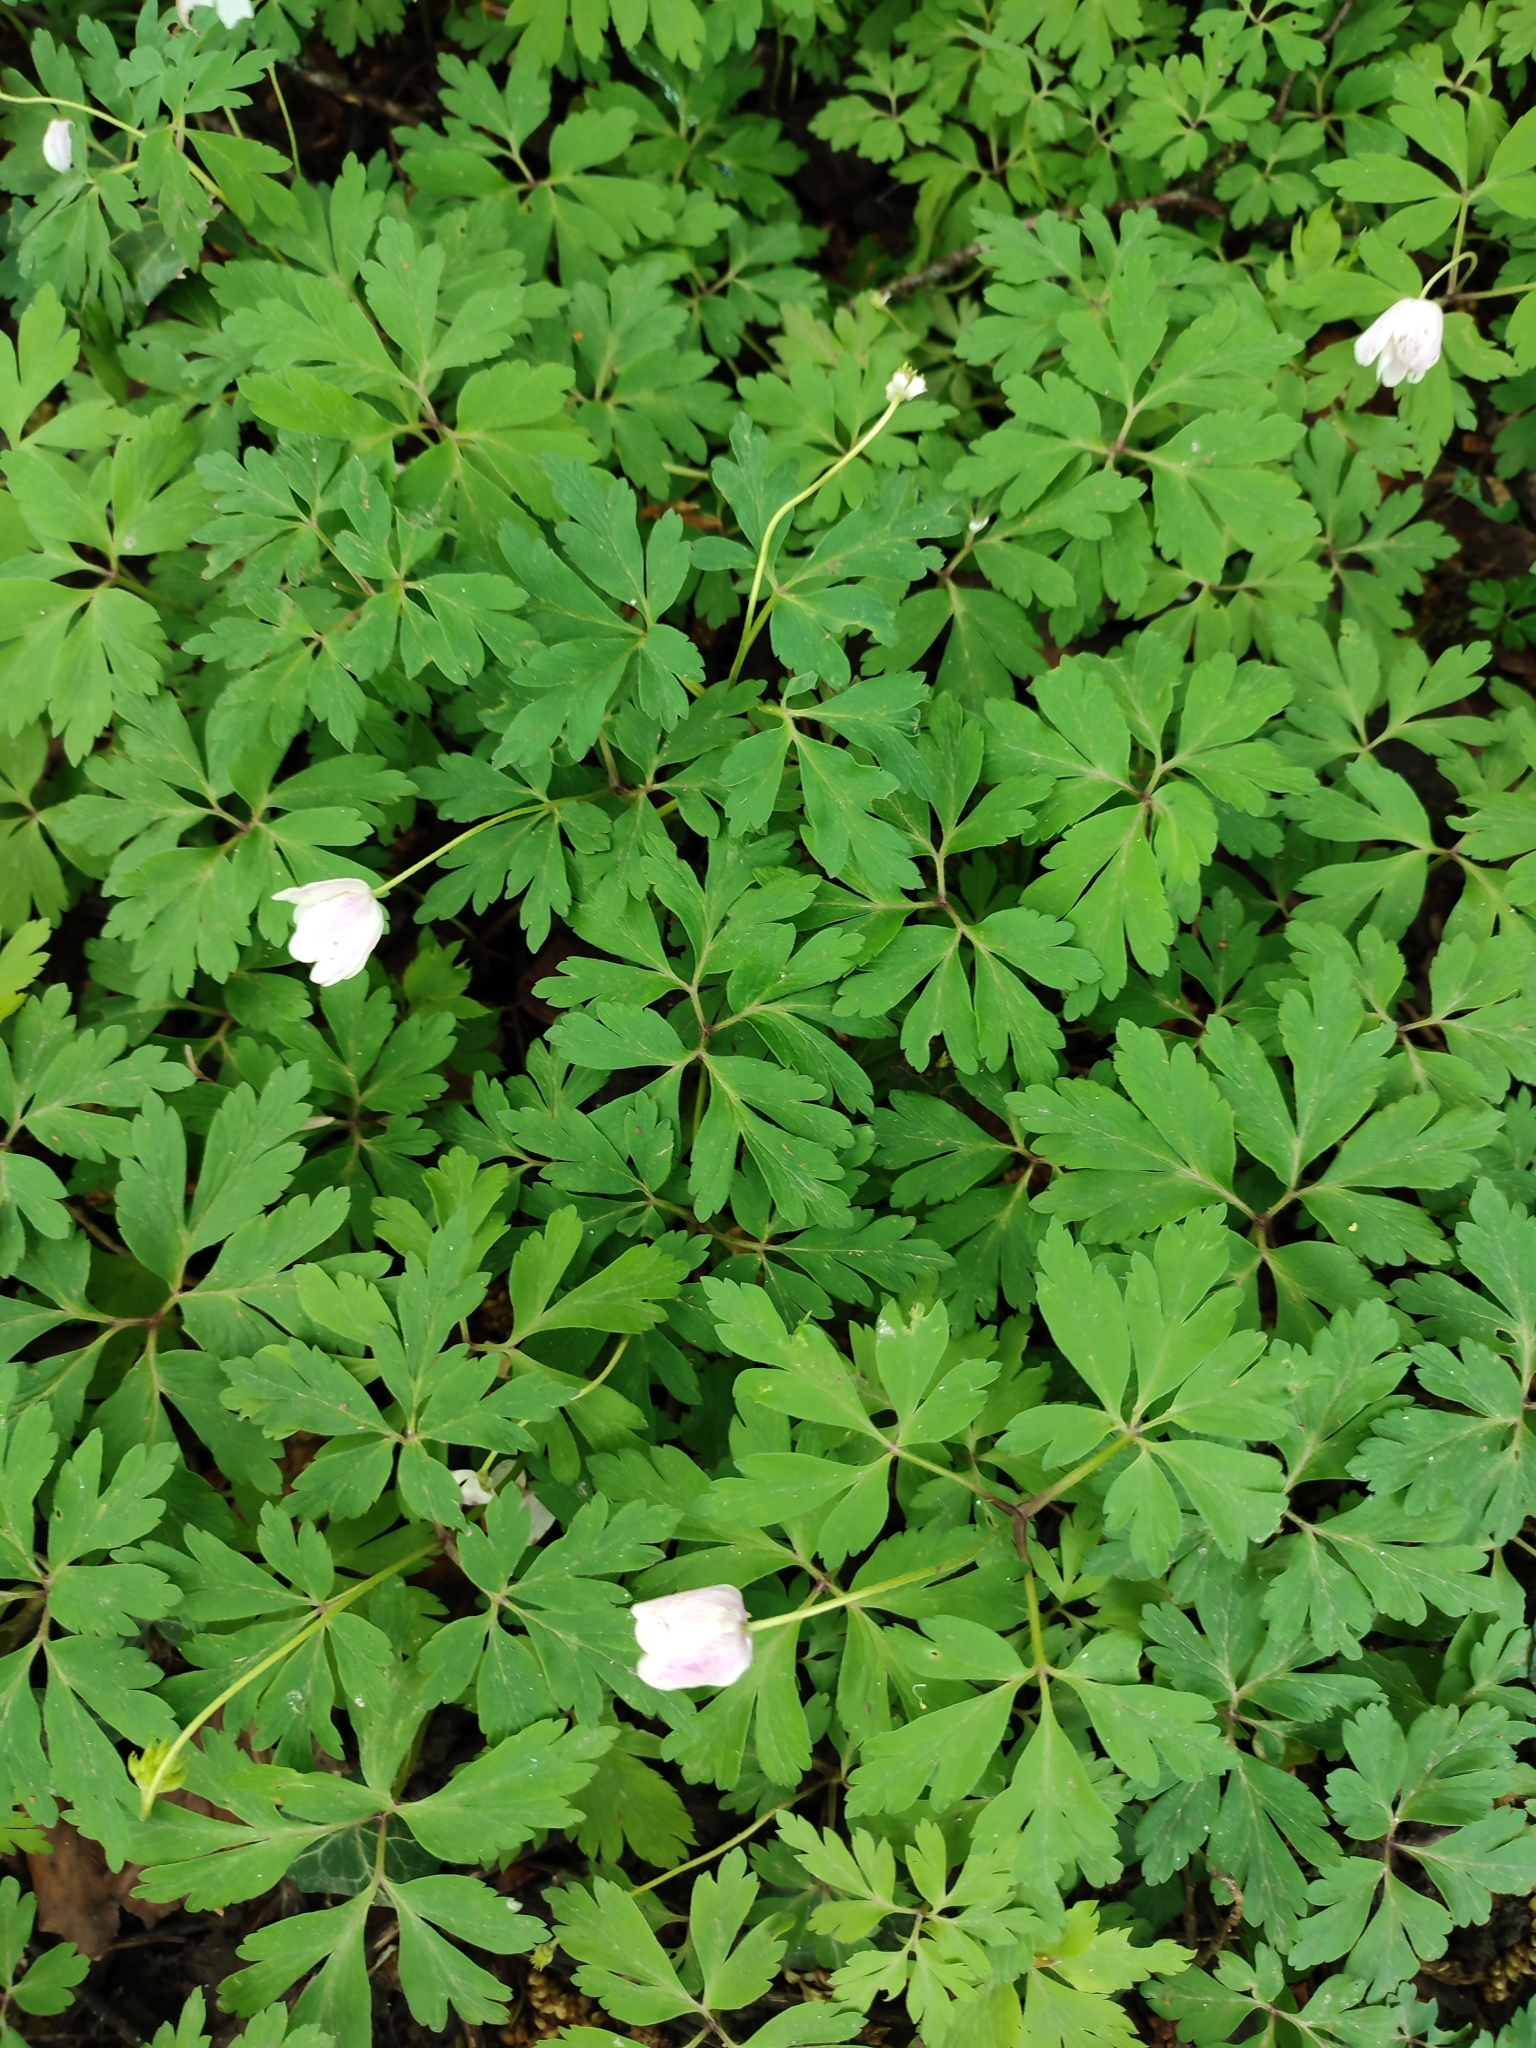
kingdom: Plantae
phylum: Tracheophyta
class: Magnoliopsida
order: Ranunculales
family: Ranunculaceae
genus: Anemone
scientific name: Anemone nemorosa
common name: Wood anemone
